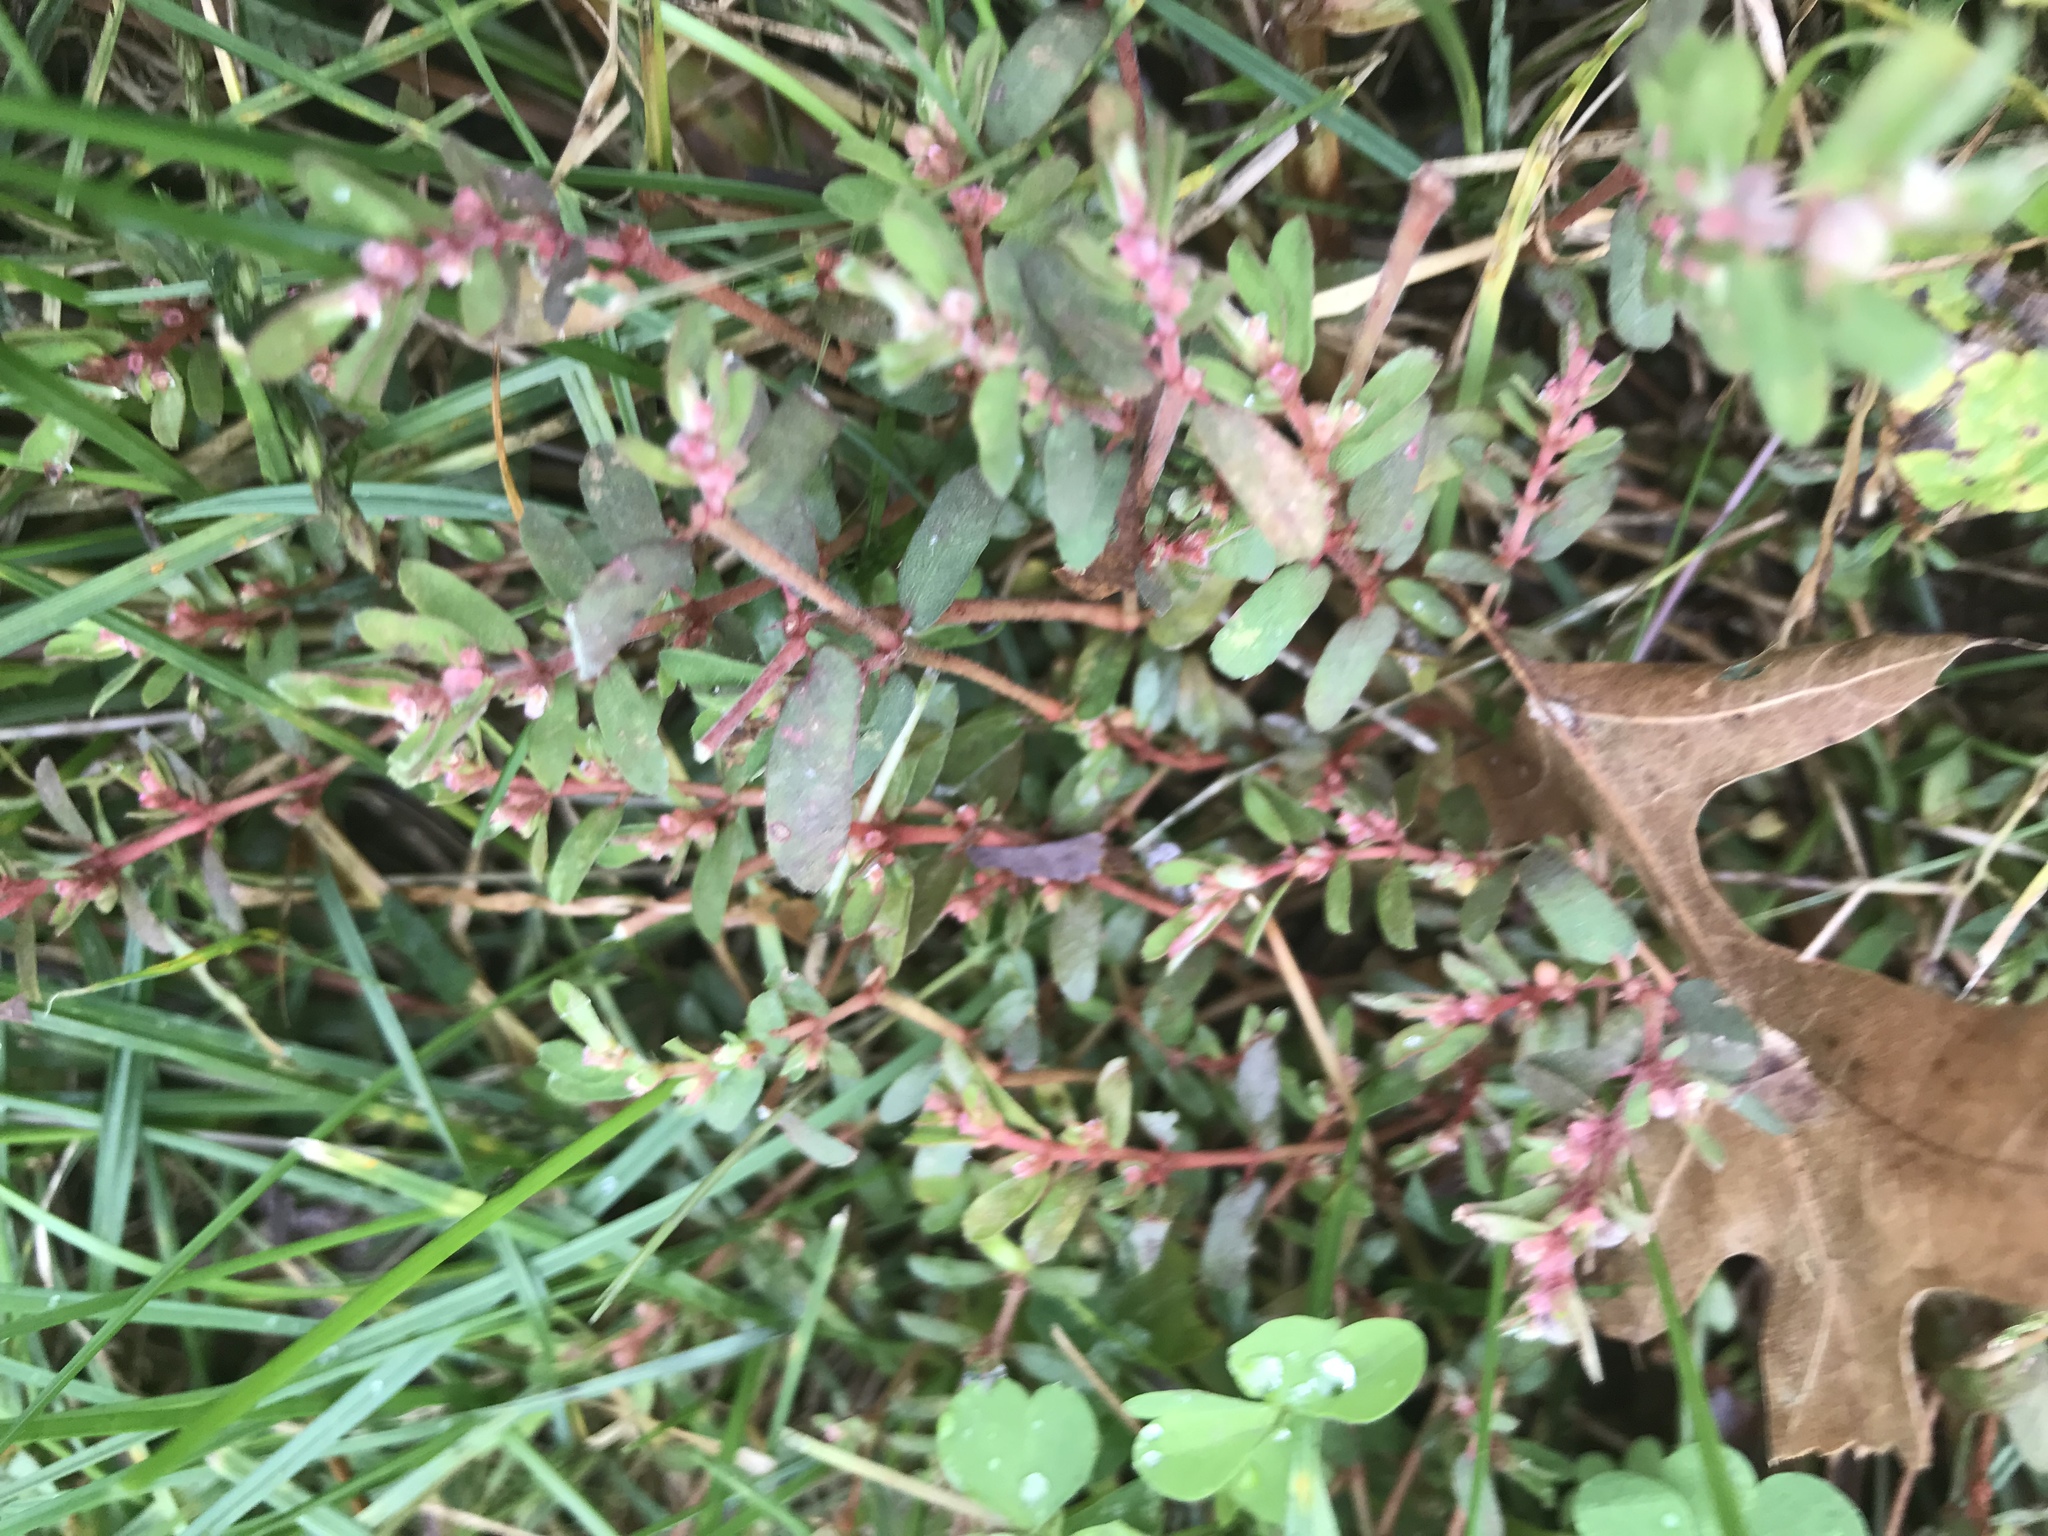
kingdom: Plantae
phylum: Tracheophyta
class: Magnoliopsida
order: Malpighiales
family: Euphorbiaceae
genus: Euphorbia
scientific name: Euphorbia maculata
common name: Spotted spurge
